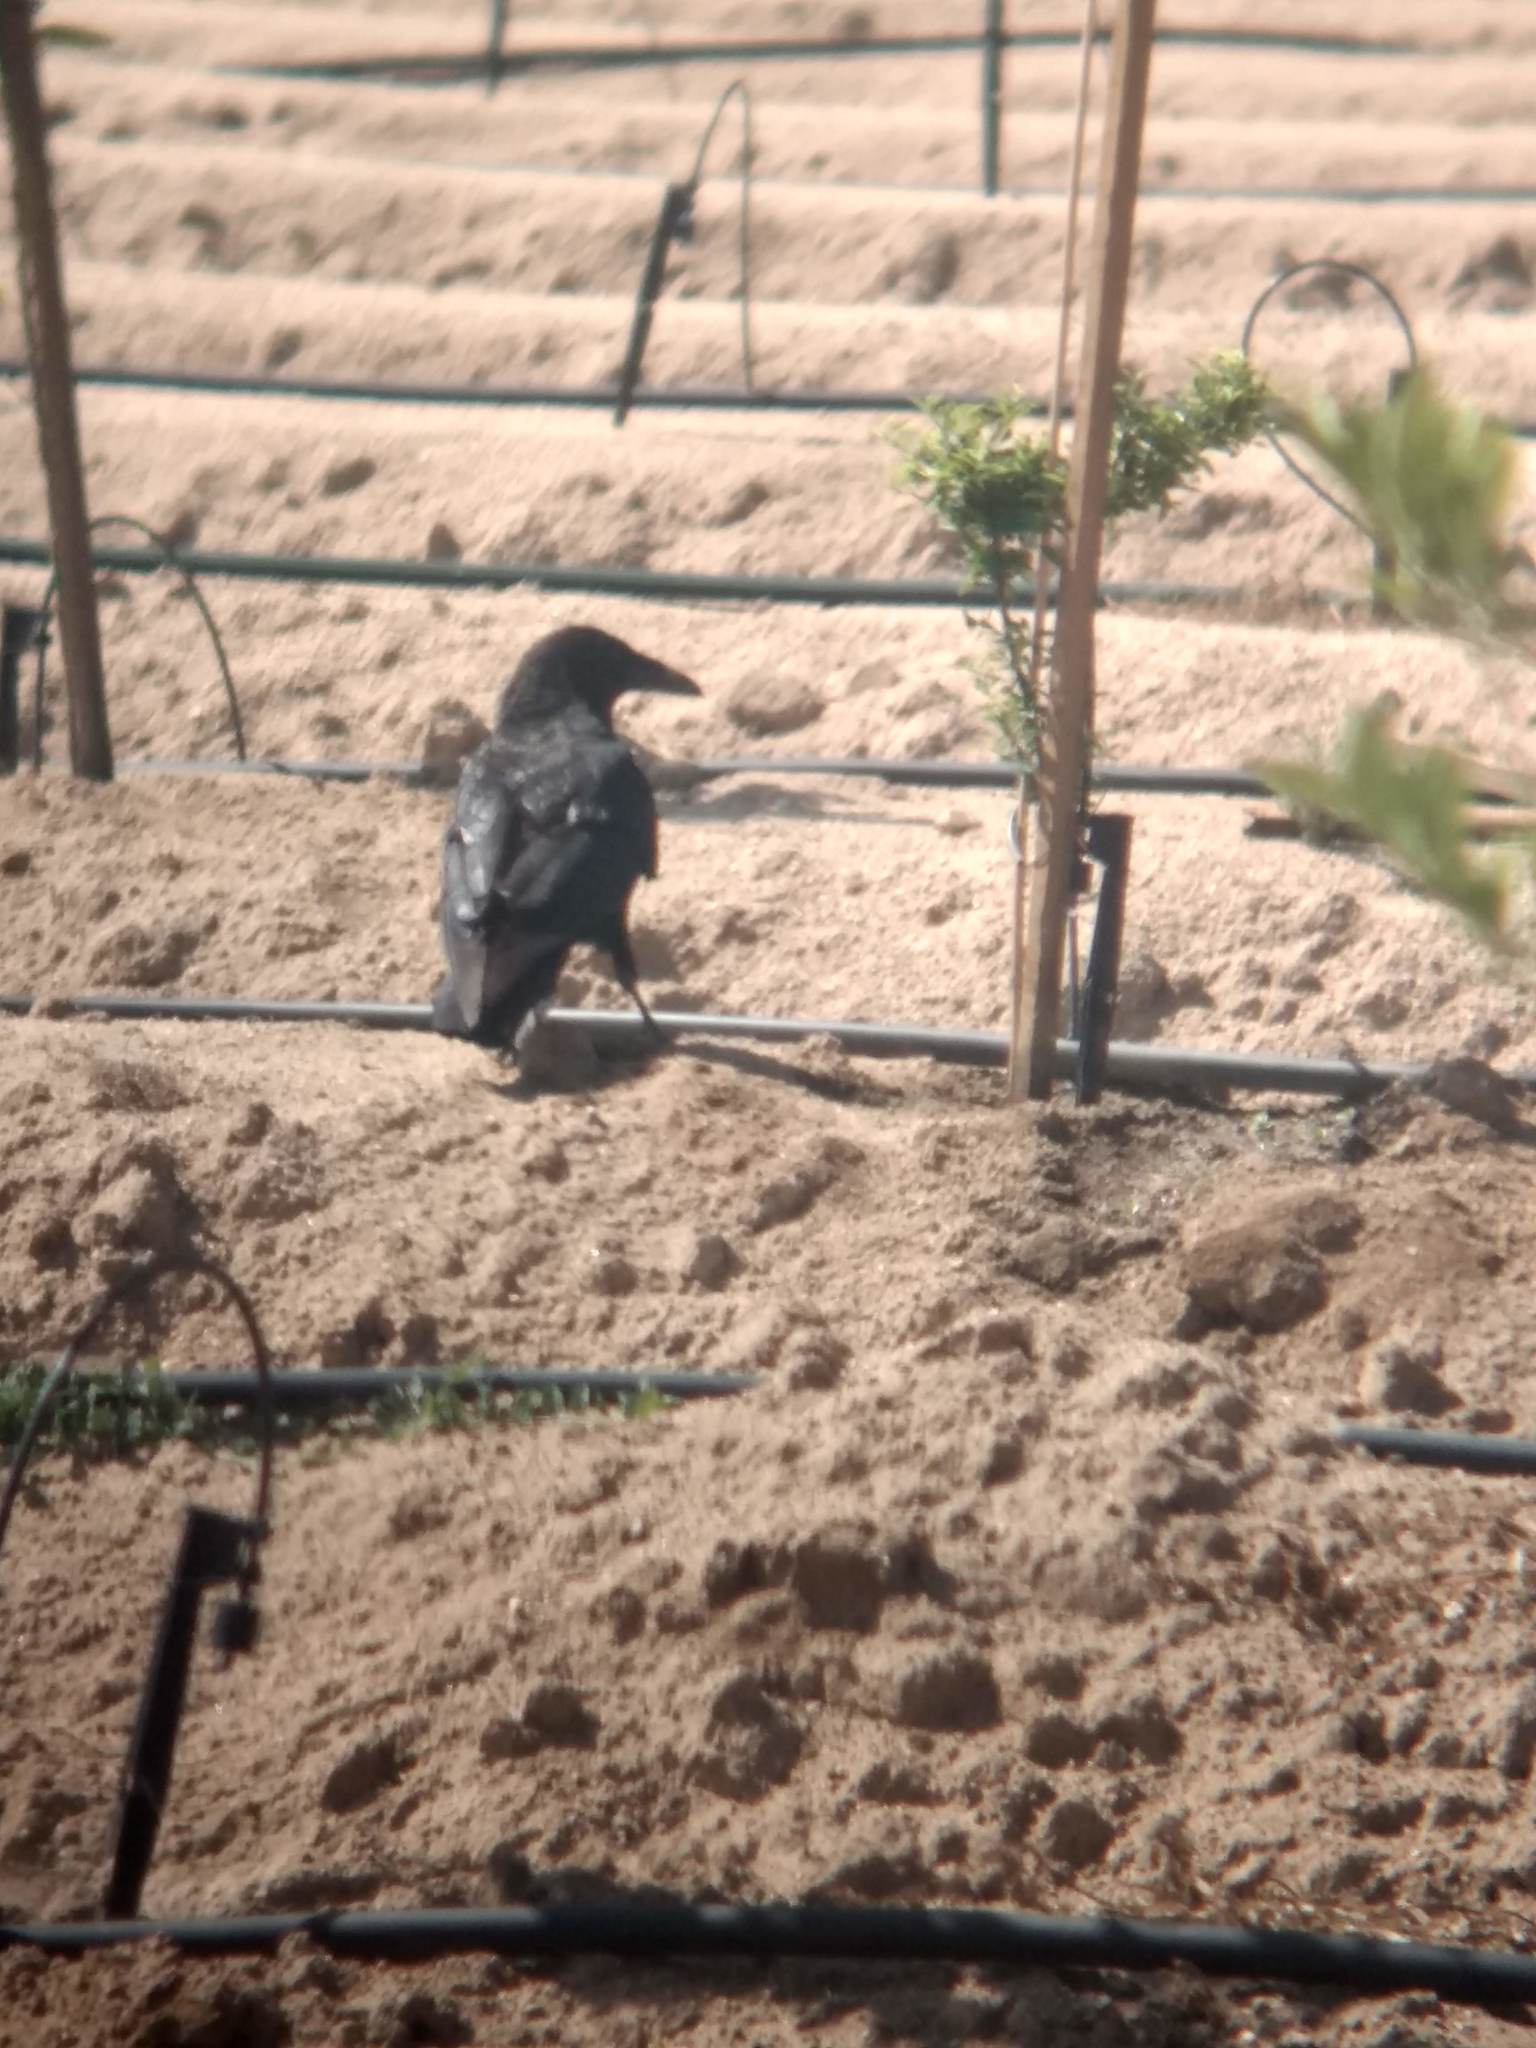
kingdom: Animalia
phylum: Chordata
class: Aves
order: Passeriformes
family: Corvidae
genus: Corvus
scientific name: Corvus corax
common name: Common raven
